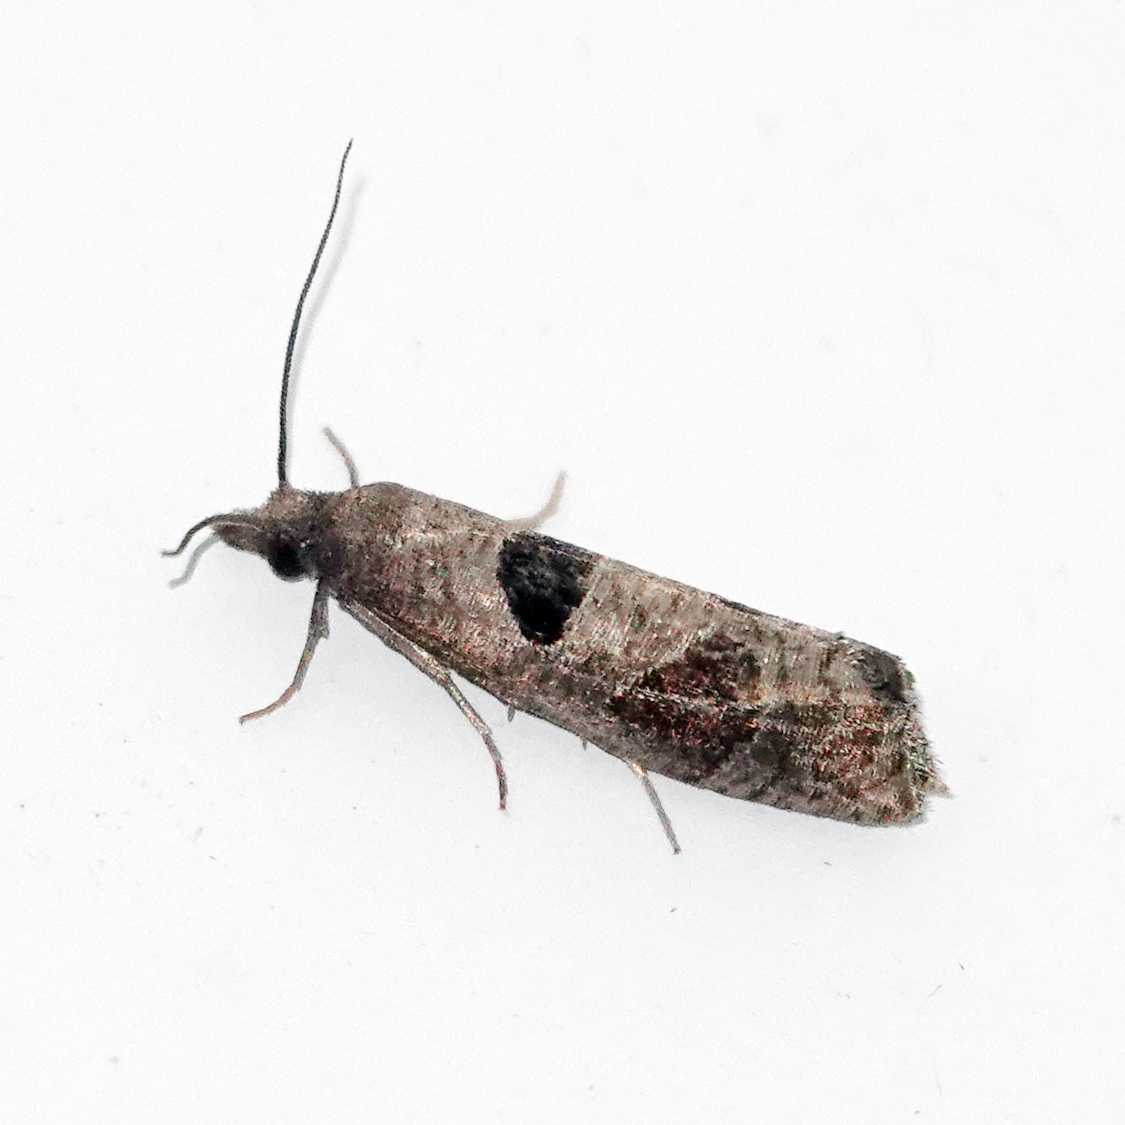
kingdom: Animalia
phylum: Arthropoda
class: Insecta
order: Lepidoptera
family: Tortricidae
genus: Pelochrista
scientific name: Pelochrista dorsisignatana
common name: Triangle-backed pelochrista moth
